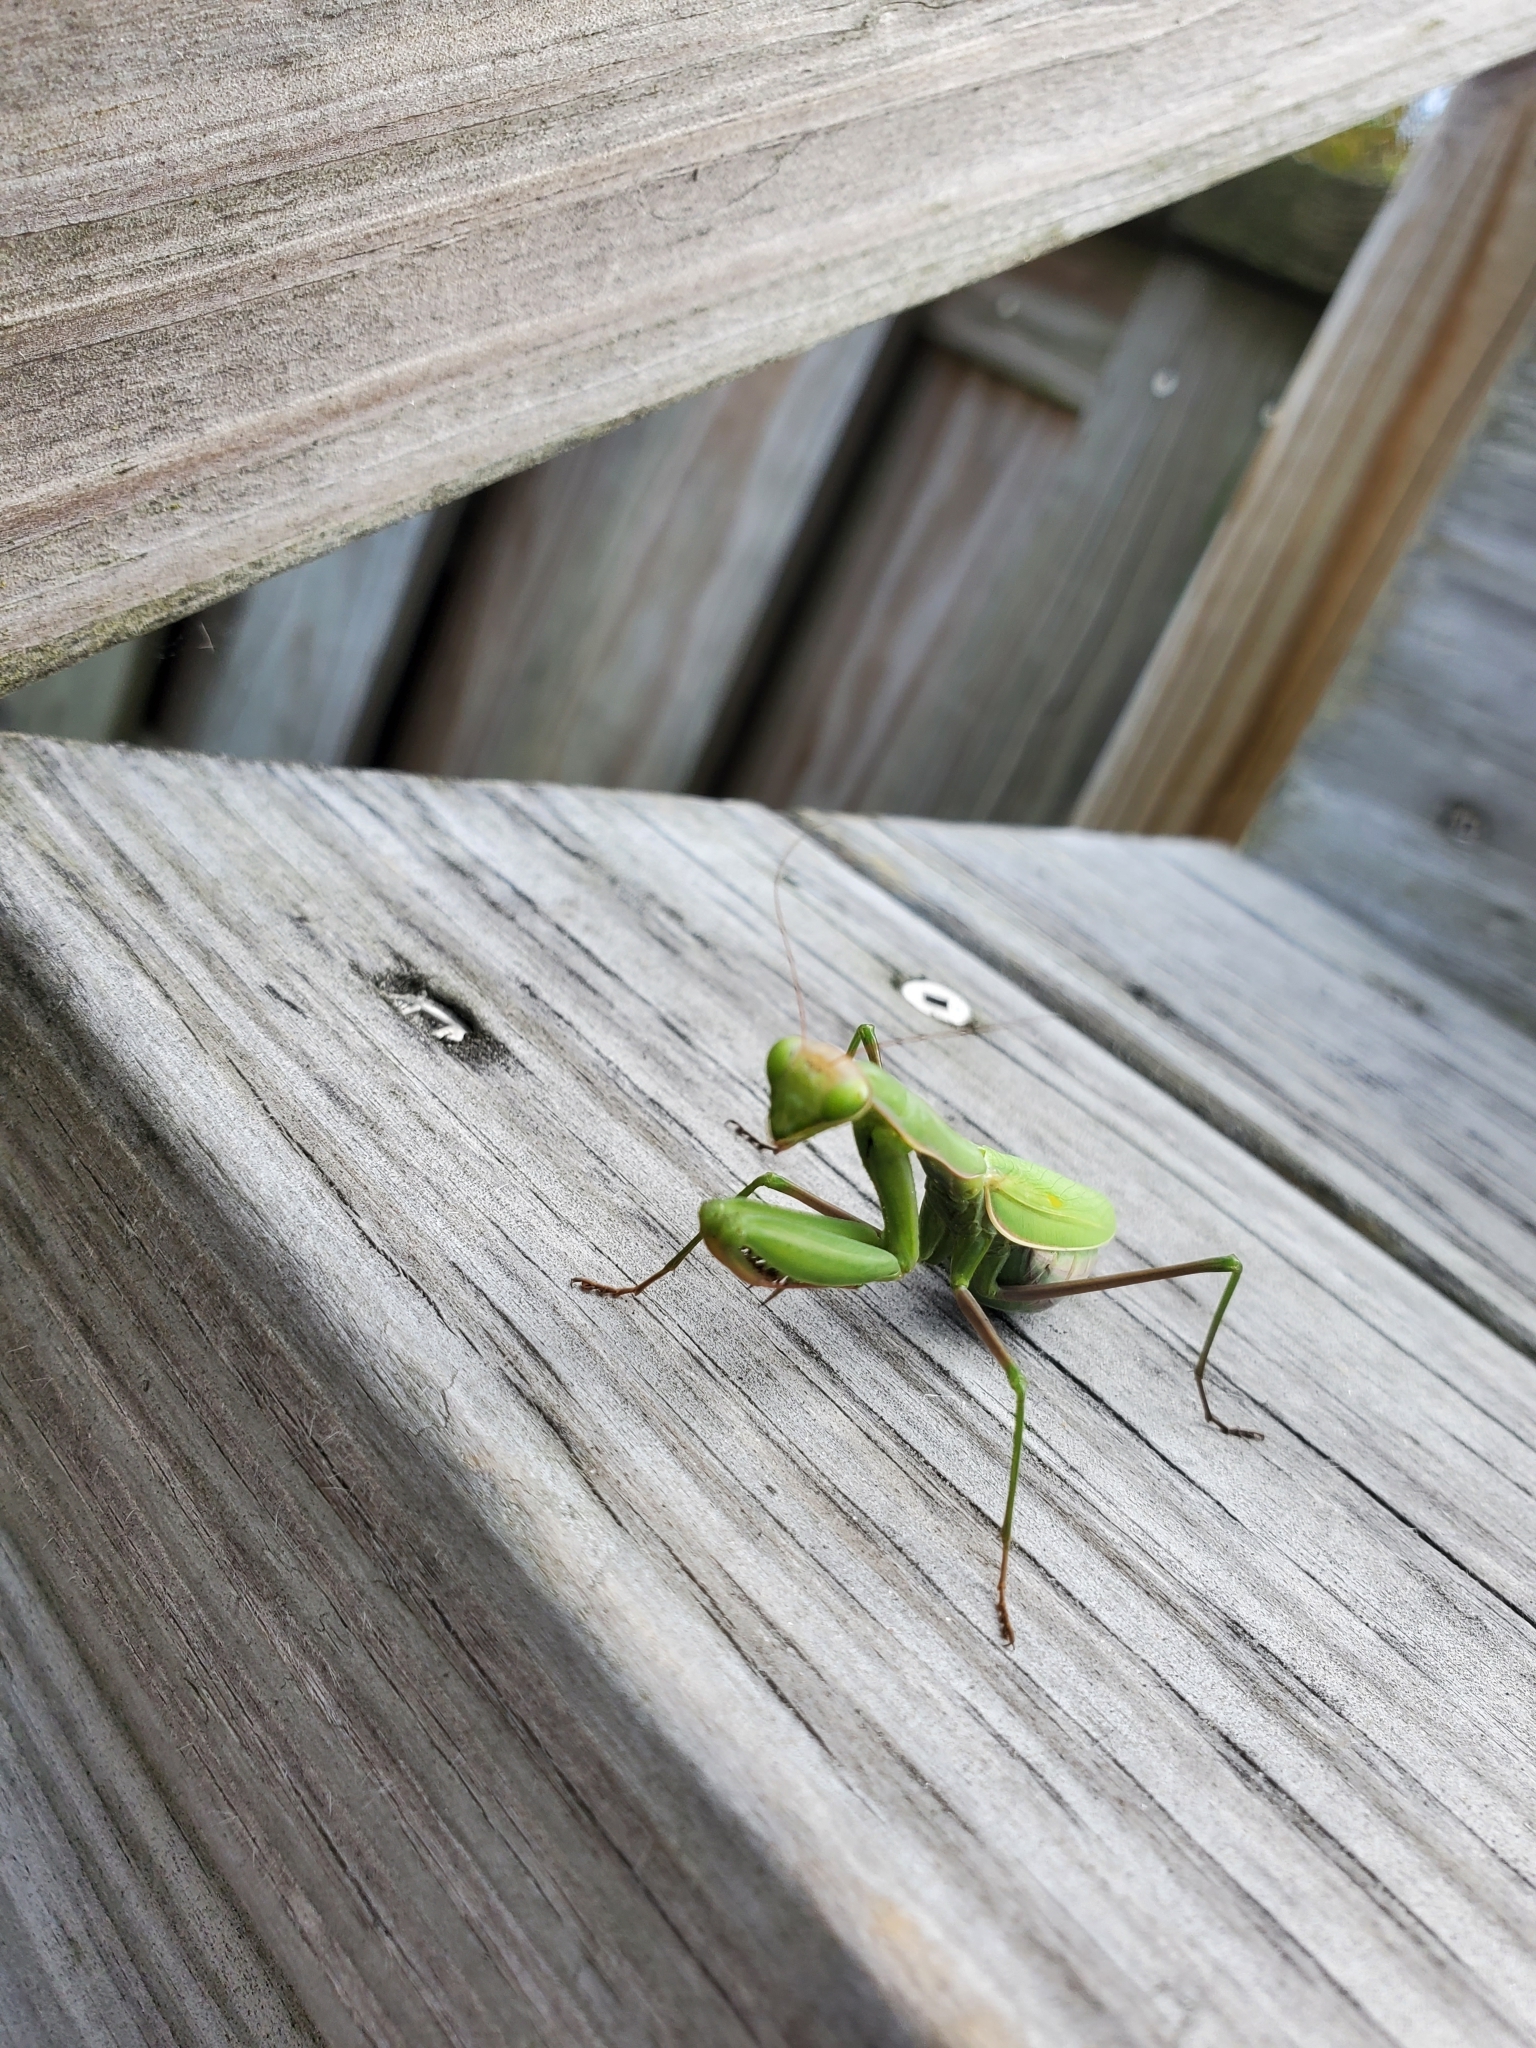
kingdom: Animalia
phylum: Arthropoda
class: Insecta
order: Mantodea
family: Mantidae
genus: Mantis
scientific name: Mantis religiosa
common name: Praying mantis
